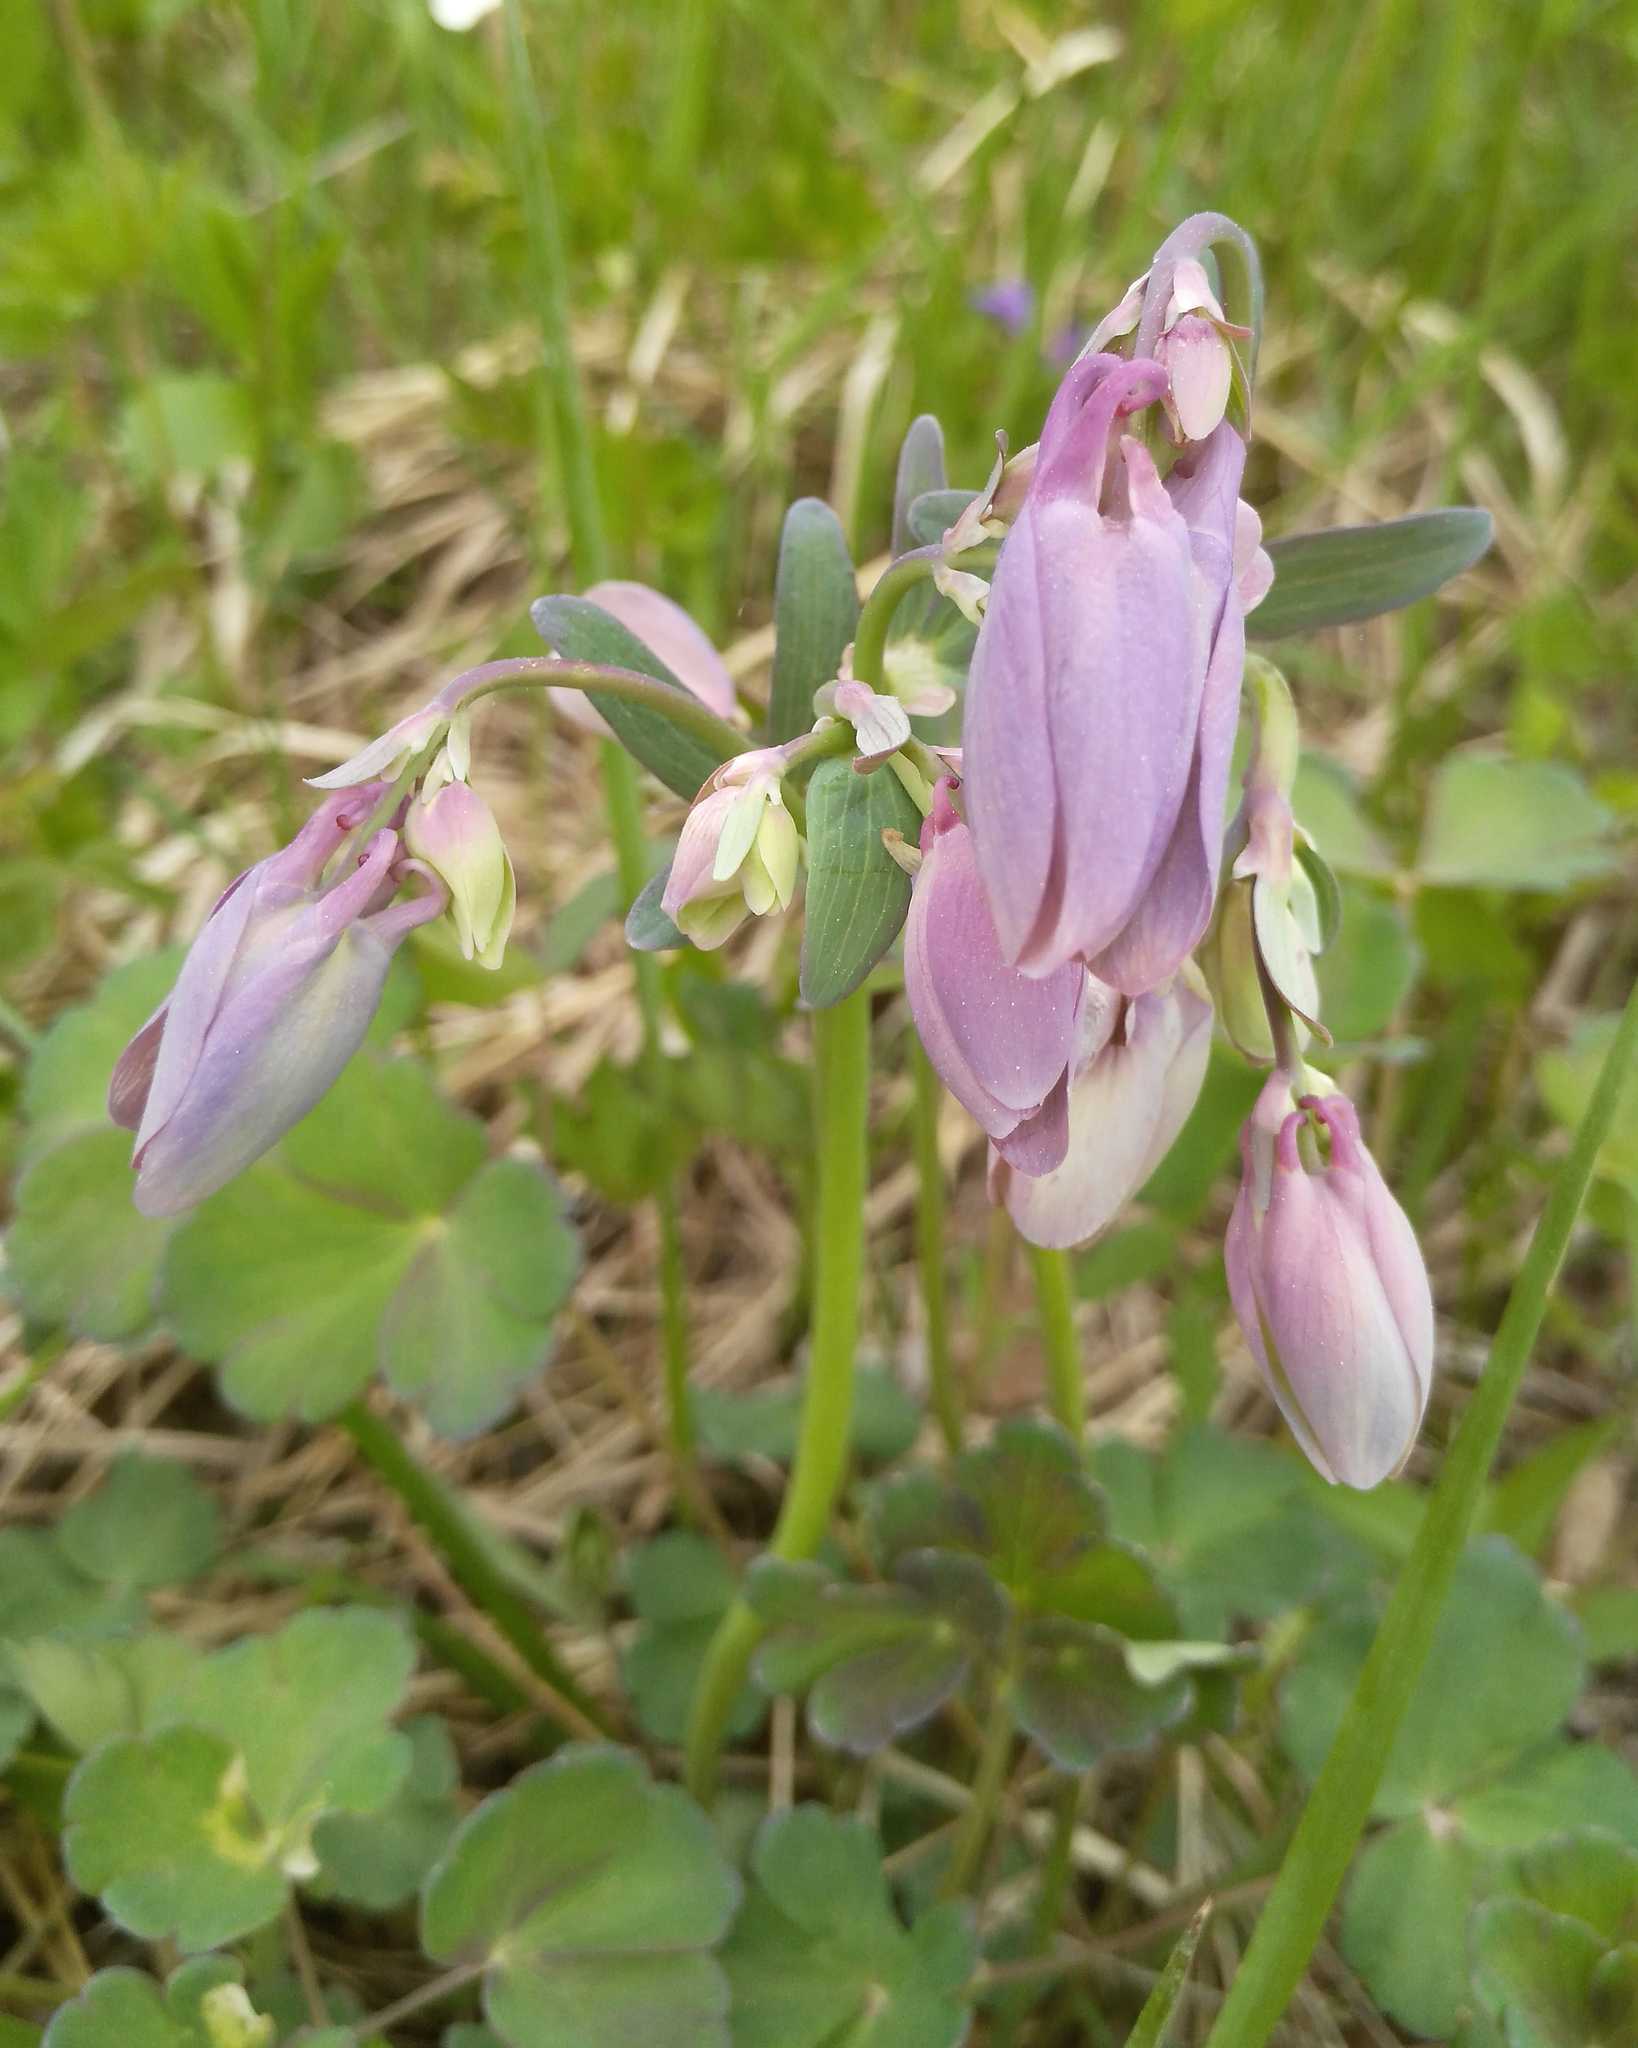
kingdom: Plantae
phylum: Tracheophyta
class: Magnoliopsida
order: Ranunculales
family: Ranunculaceae
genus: Aquilegia
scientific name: Aquilegia sibirica
